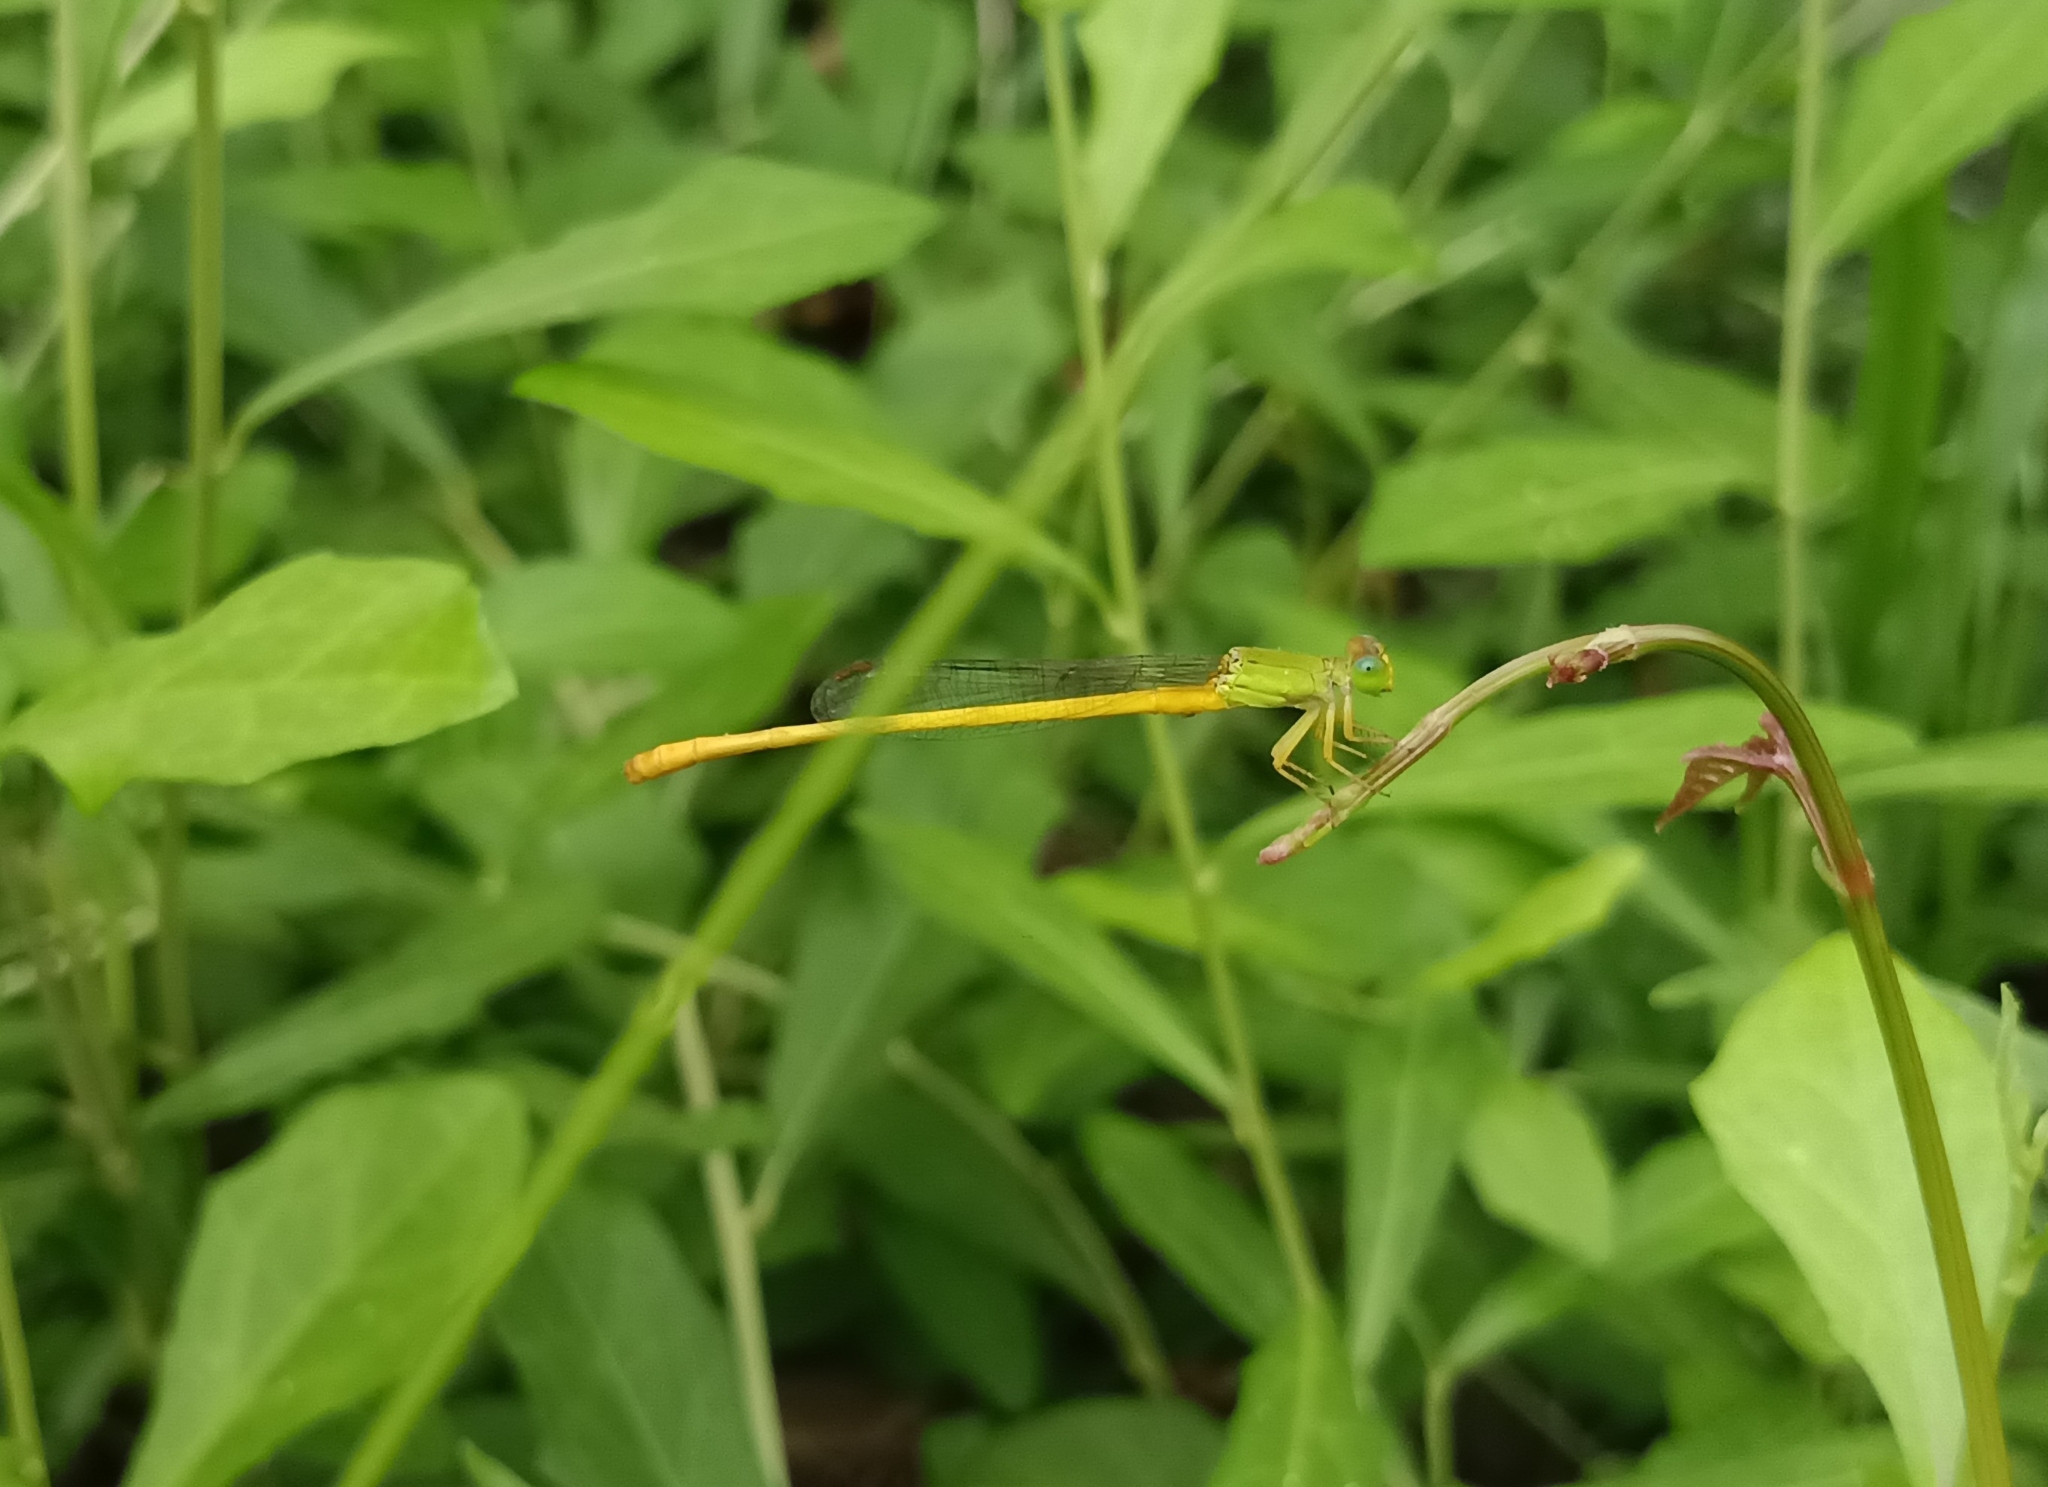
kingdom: Animalia
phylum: Arthropoda
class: Insecta
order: Odonata
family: Coenagrionidae
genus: Ceriagrion
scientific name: Ceriagrion coromandelianum
